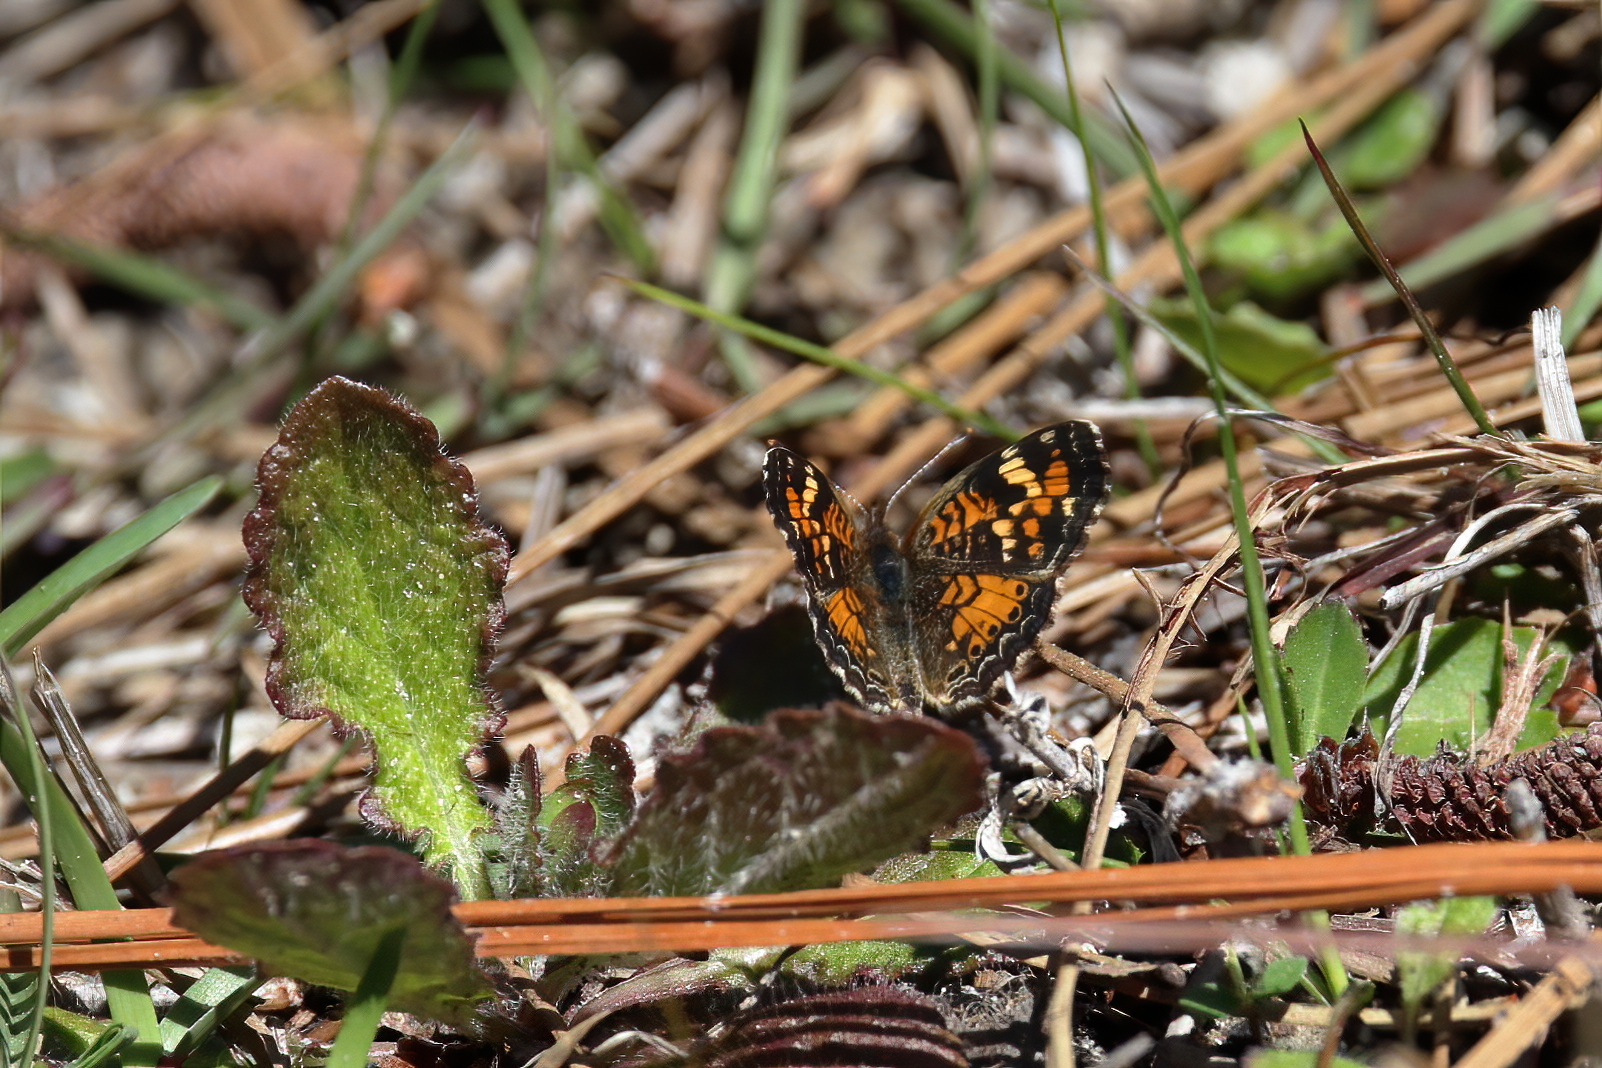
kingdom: Animalia
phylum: Arthropoda
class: Insecta
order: Lepidoptera
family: Nymphalidae
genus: Phyciodes
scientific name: Phyciodes phaon
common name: Phaon crescent
